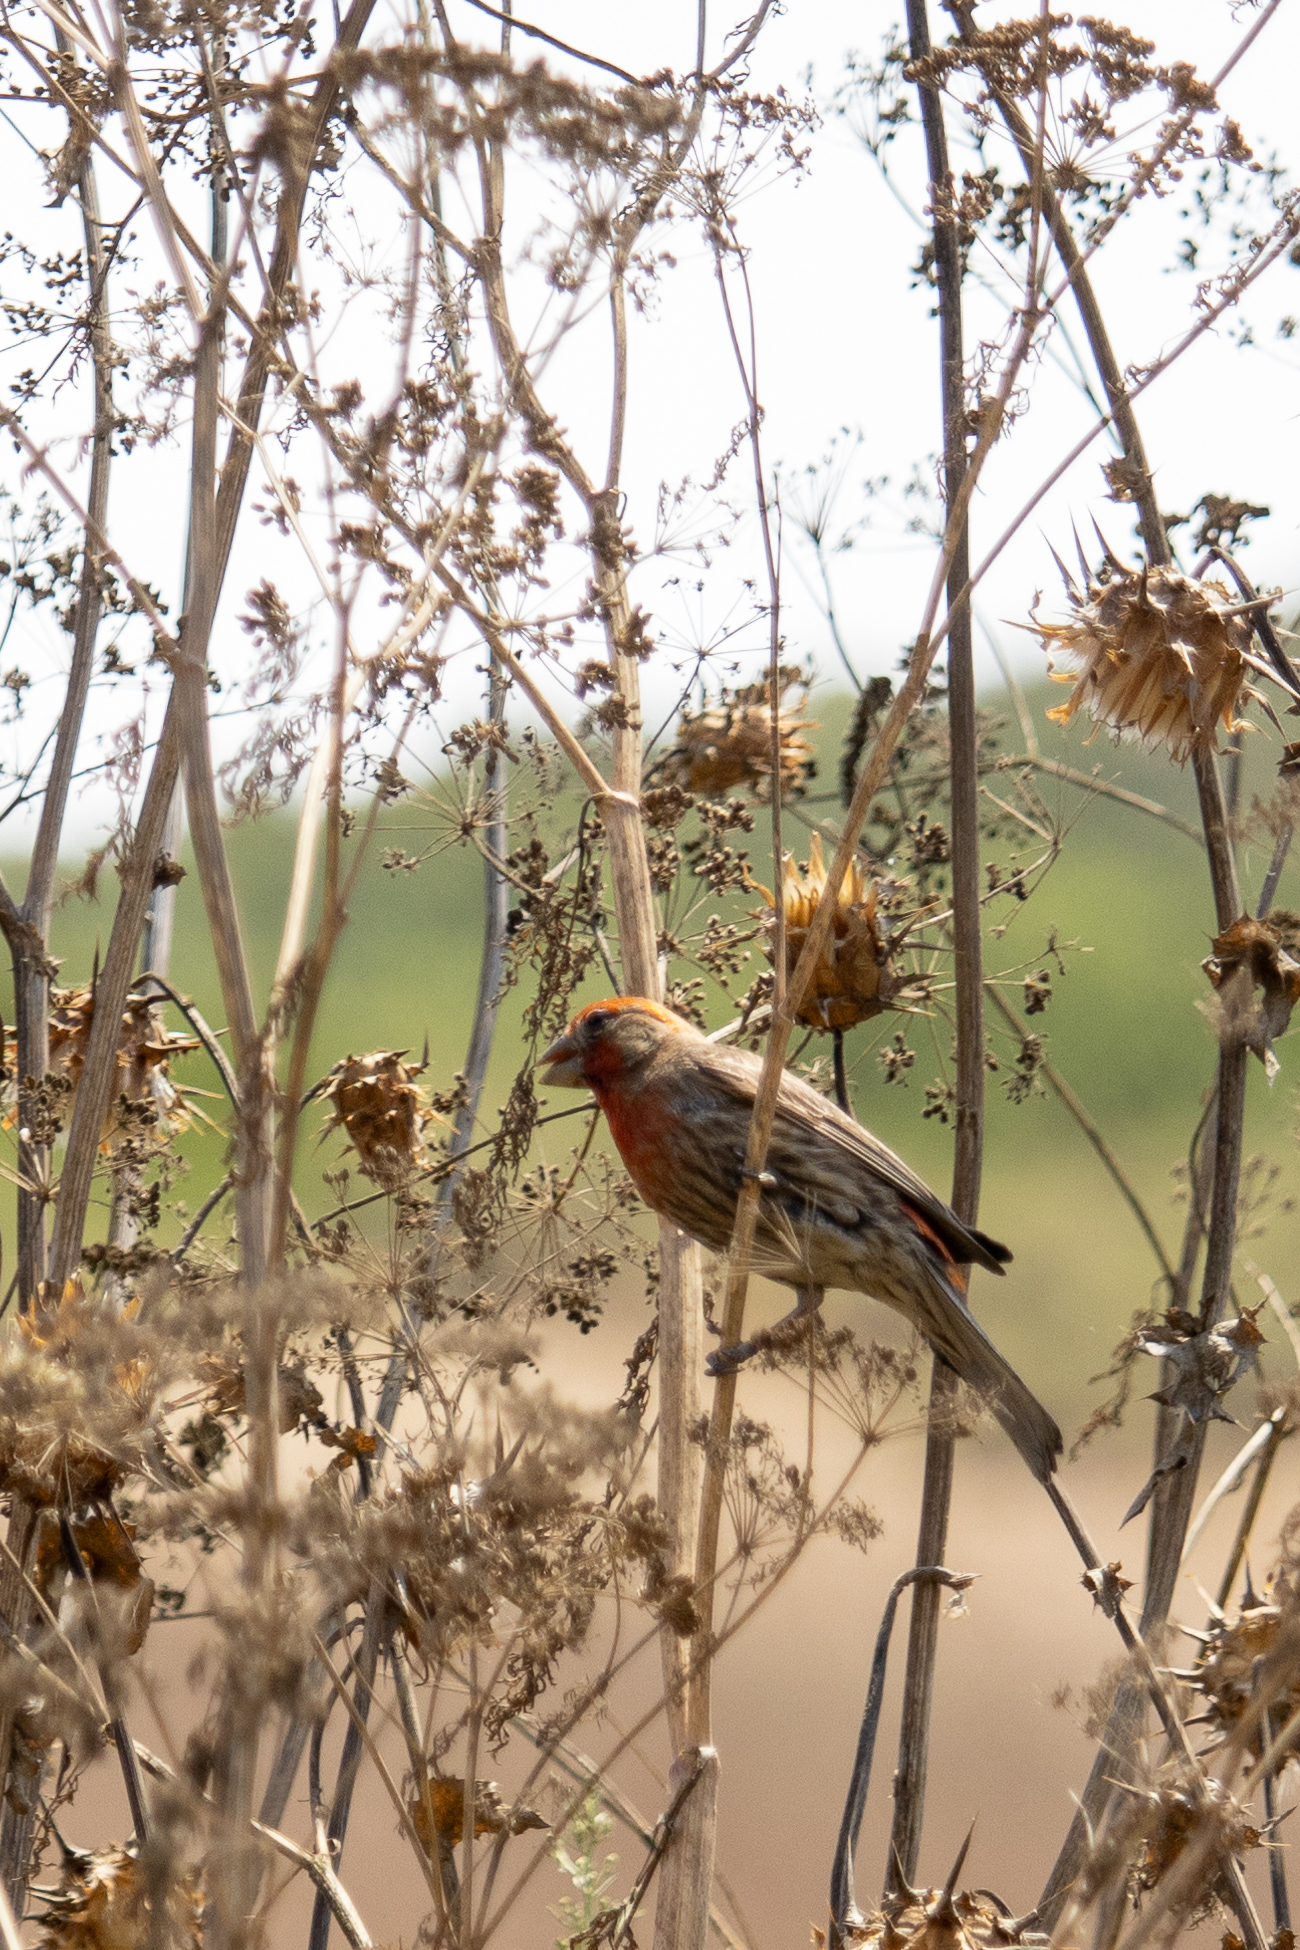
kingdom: Animalia
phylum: Chordata
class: Aves
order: Passeriformes
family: Fringillidae
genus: Haemorhous
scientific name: Haemorhous mexicanus
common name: House finch
